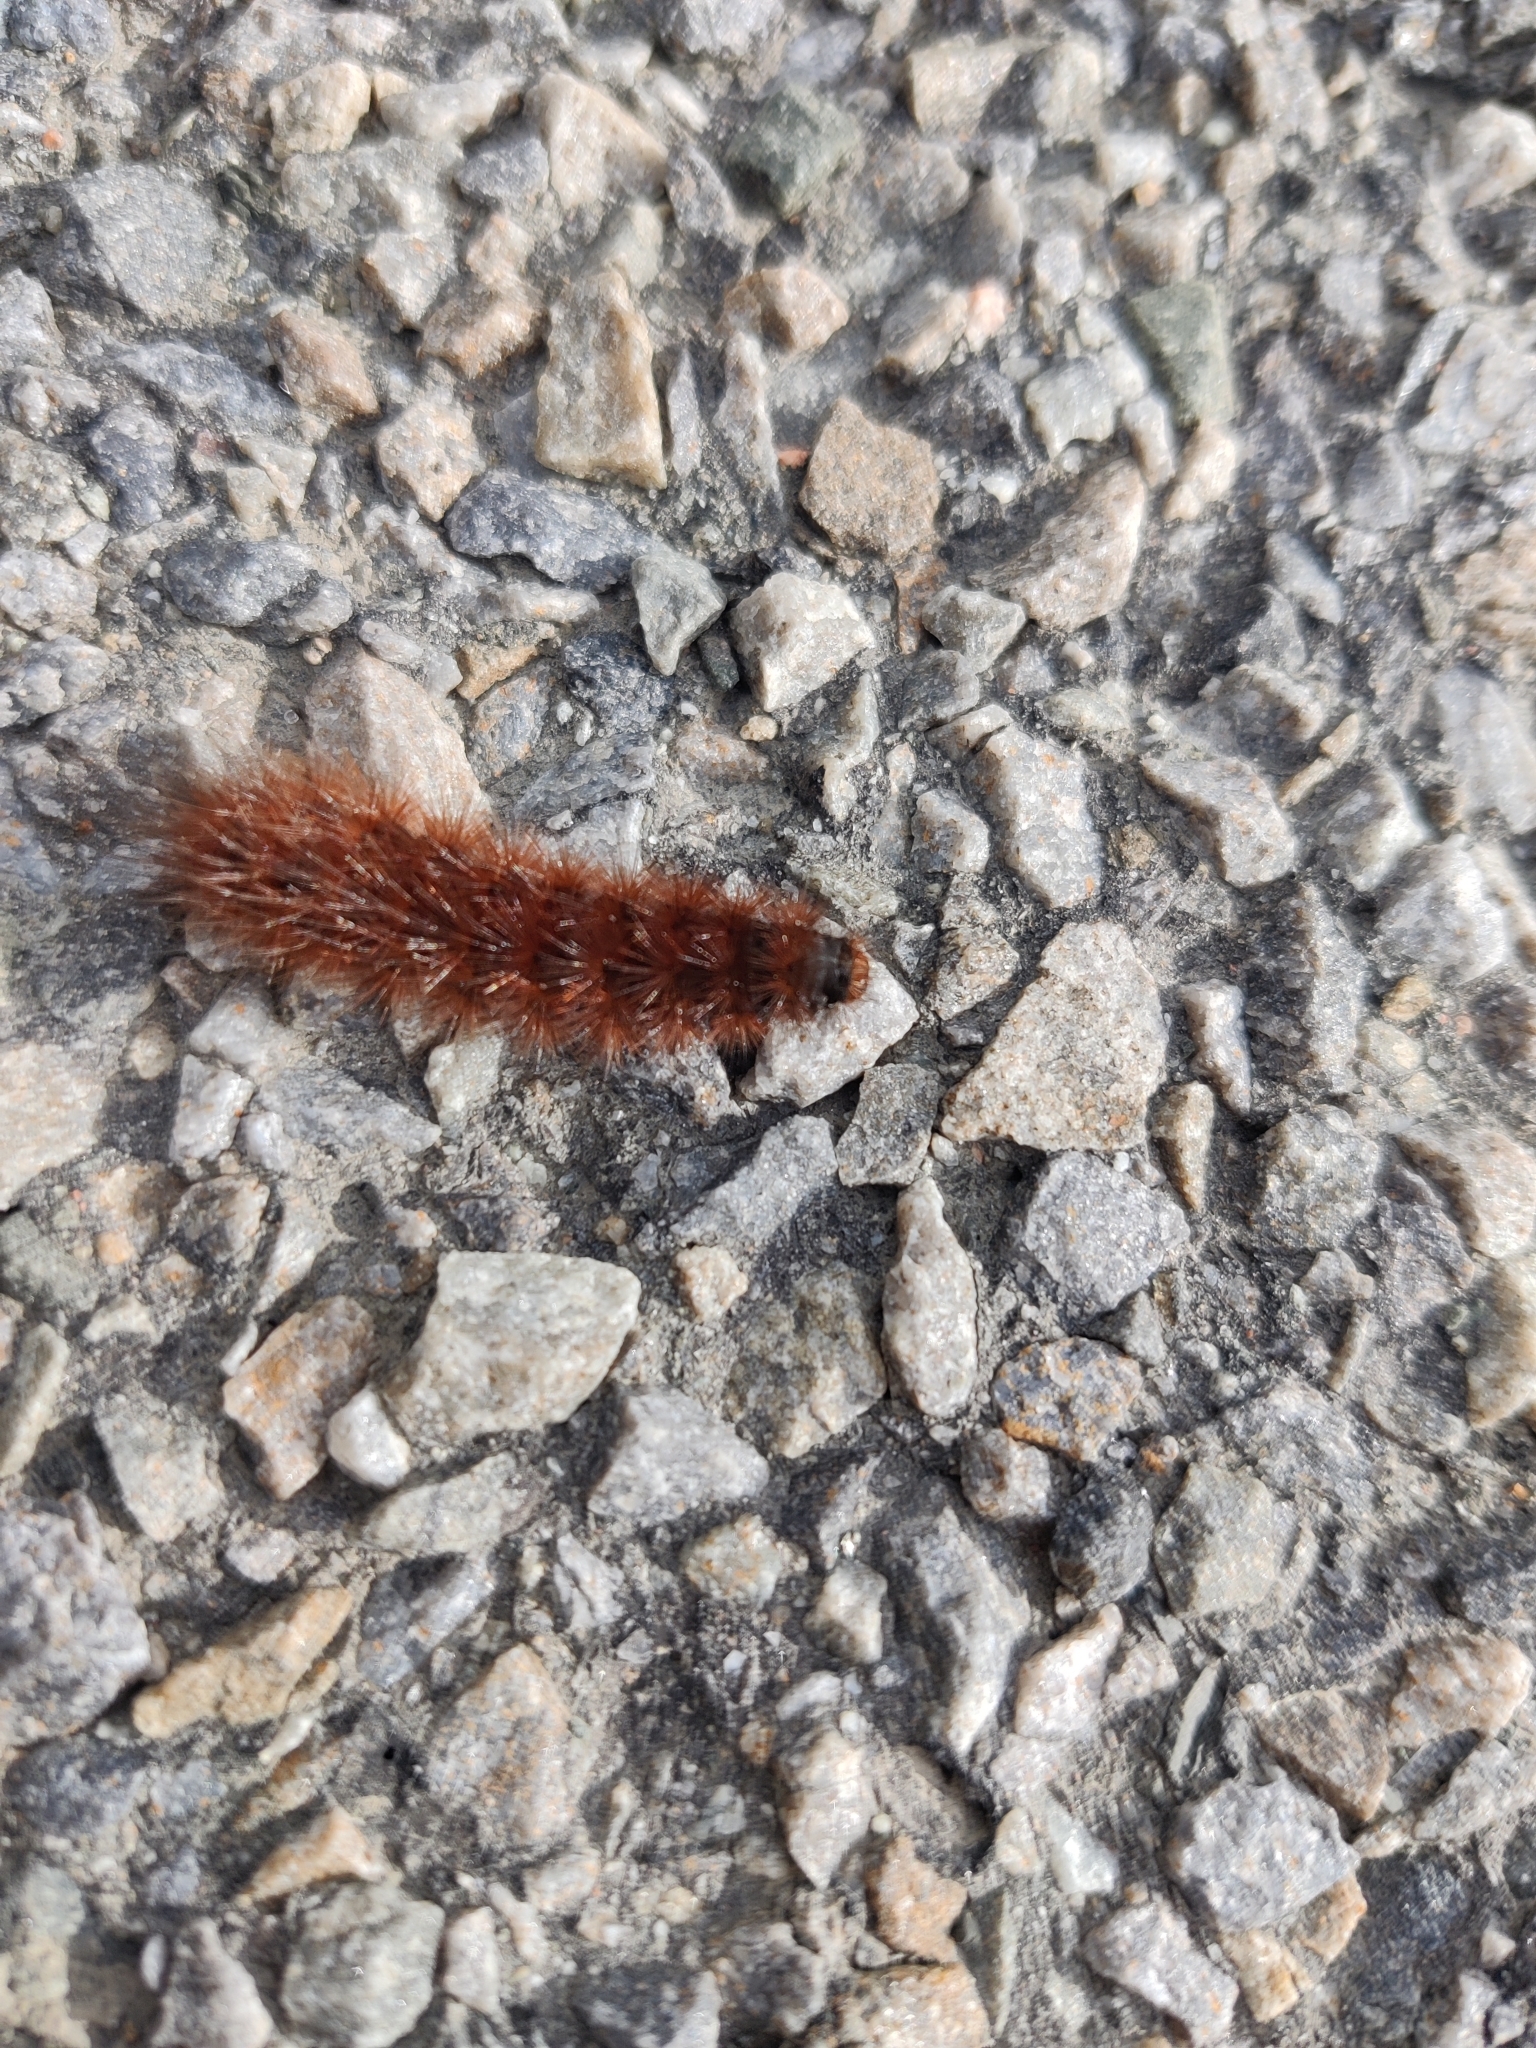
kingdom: Animalia
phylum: Arthropoda
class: Insecta
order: Lepidoptera
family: Erebidae
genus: Phragmatobia
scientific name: Phragmatobia fuliginosa
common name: Ruby tiger
